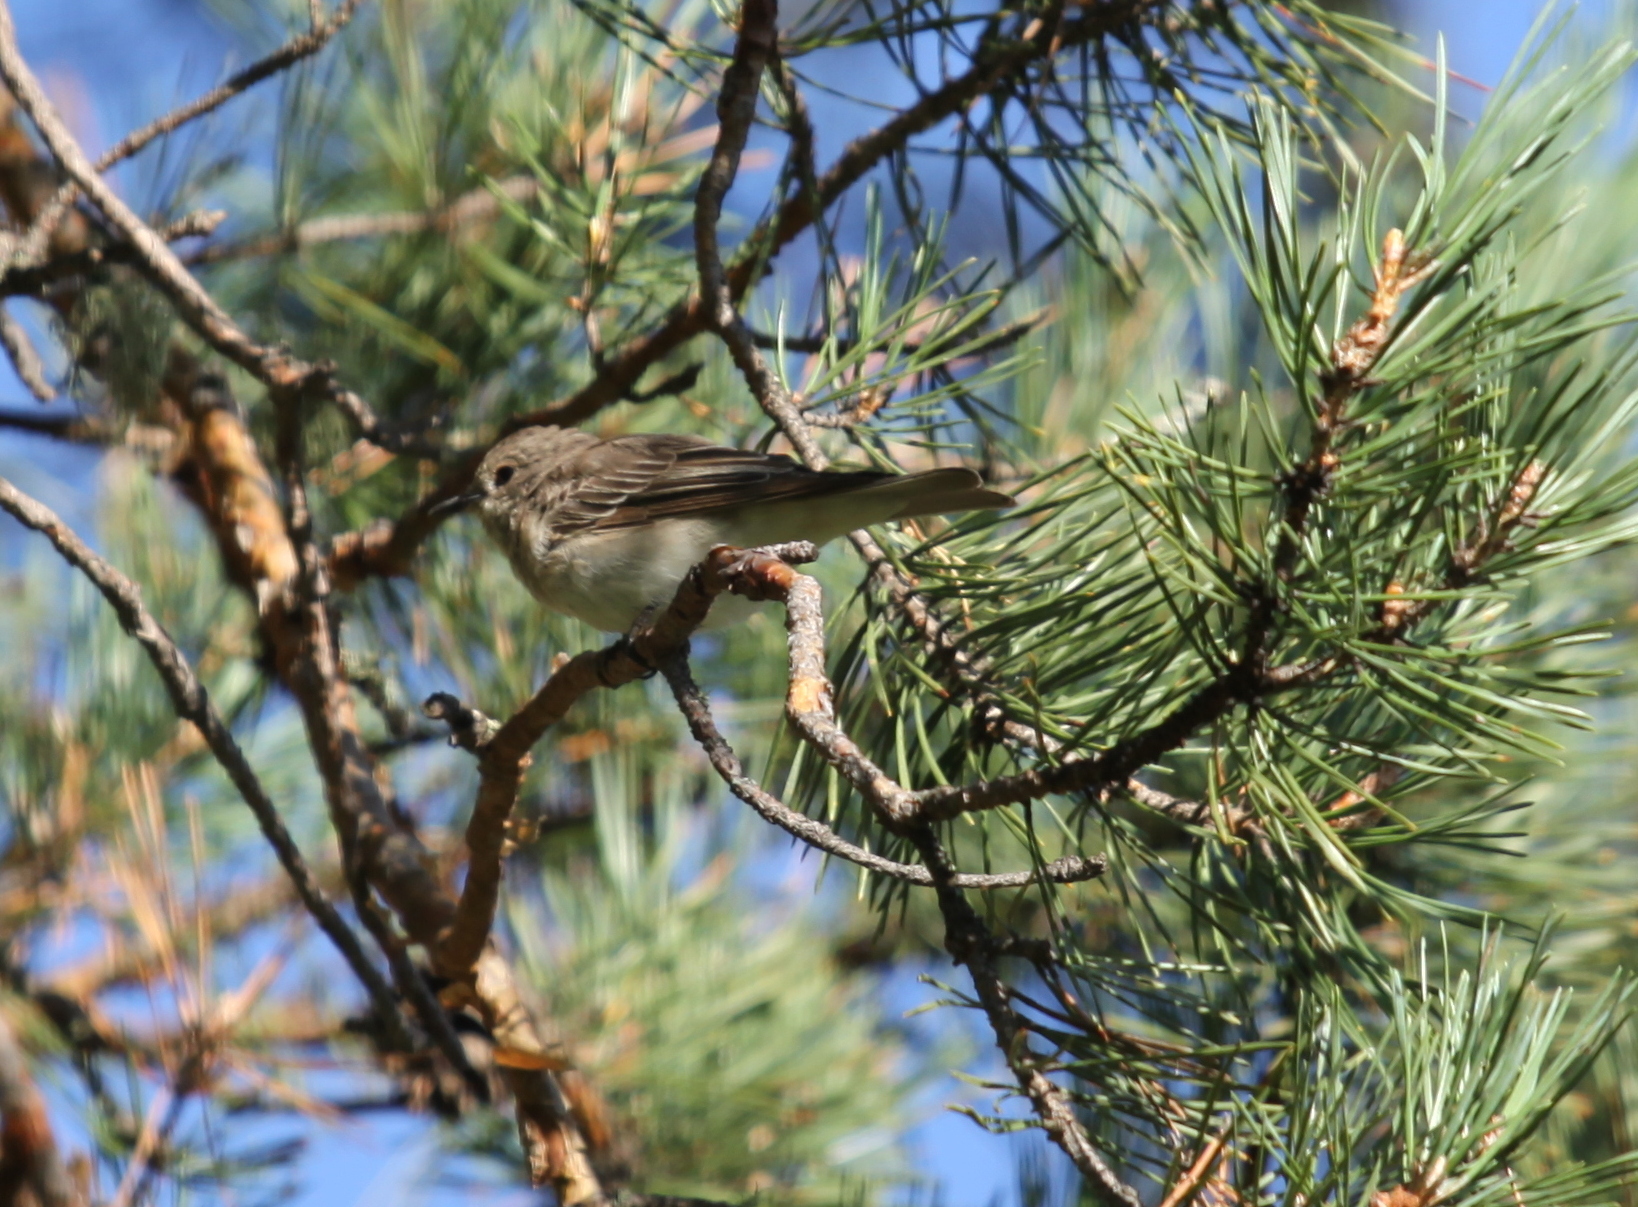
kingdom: Animalia
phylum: Chordata
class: Aves
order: Passeriformes
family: Muscicapidae
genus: Muscicapa
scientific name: Muscicapa striata
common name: Spotted flycatcher
